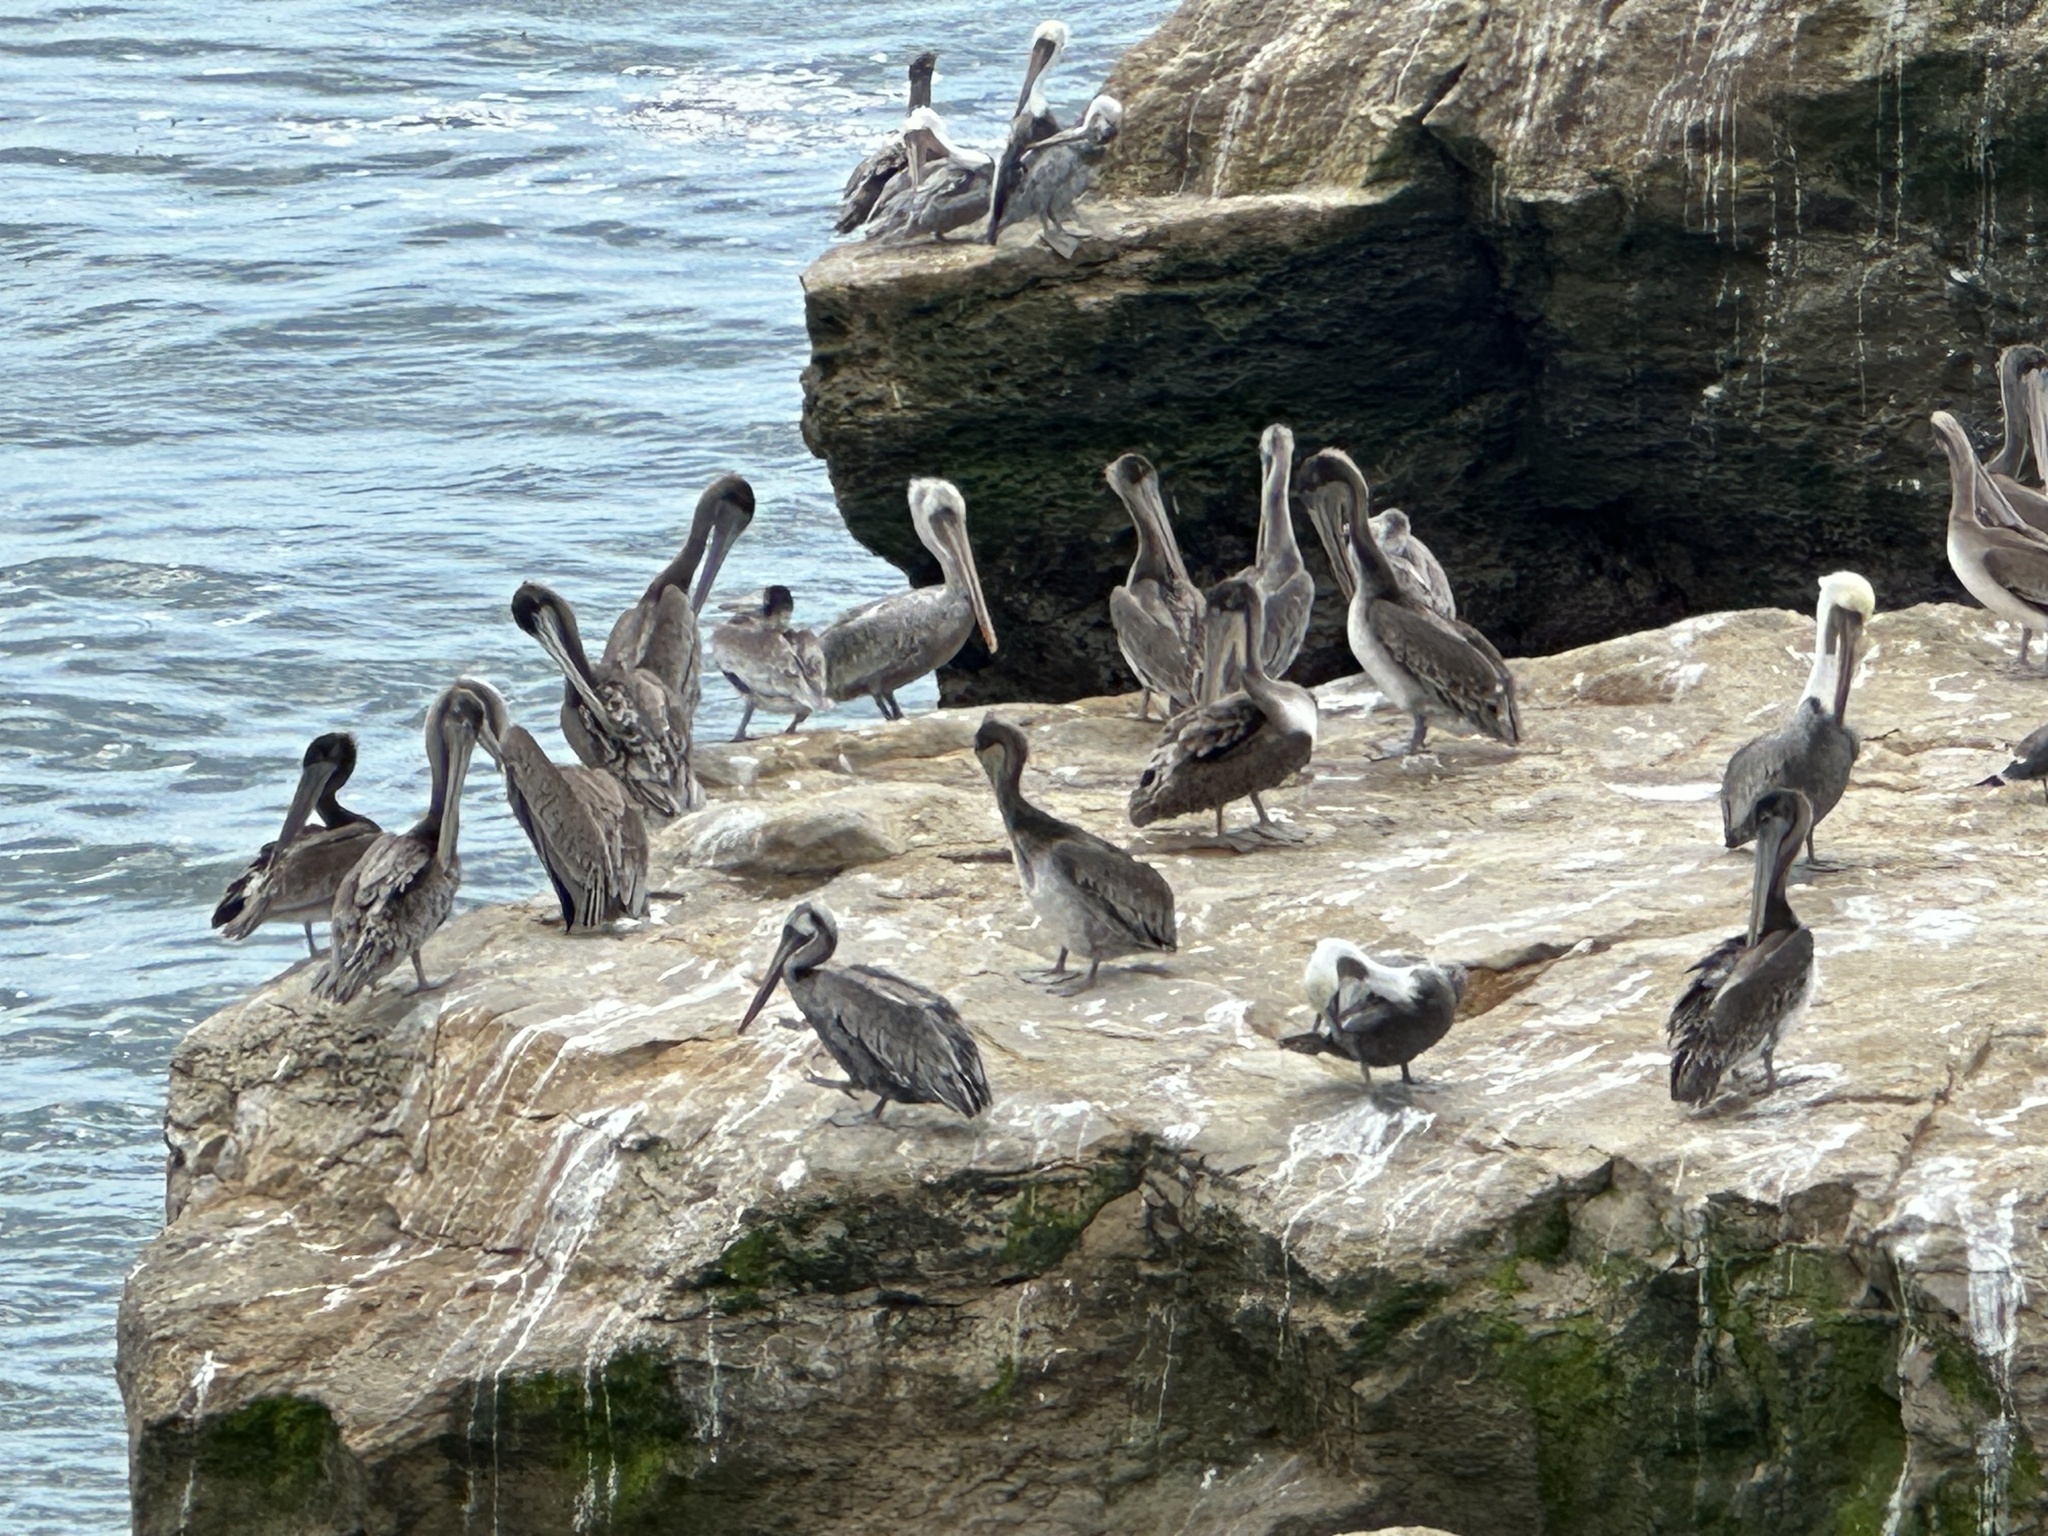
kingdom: Animalia
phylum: Chordata
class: Aves
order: Pelecaniformes
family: Pelecanidae
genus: Pelecanus
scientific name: Pelecanus occidentalis
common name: Brown pelican
